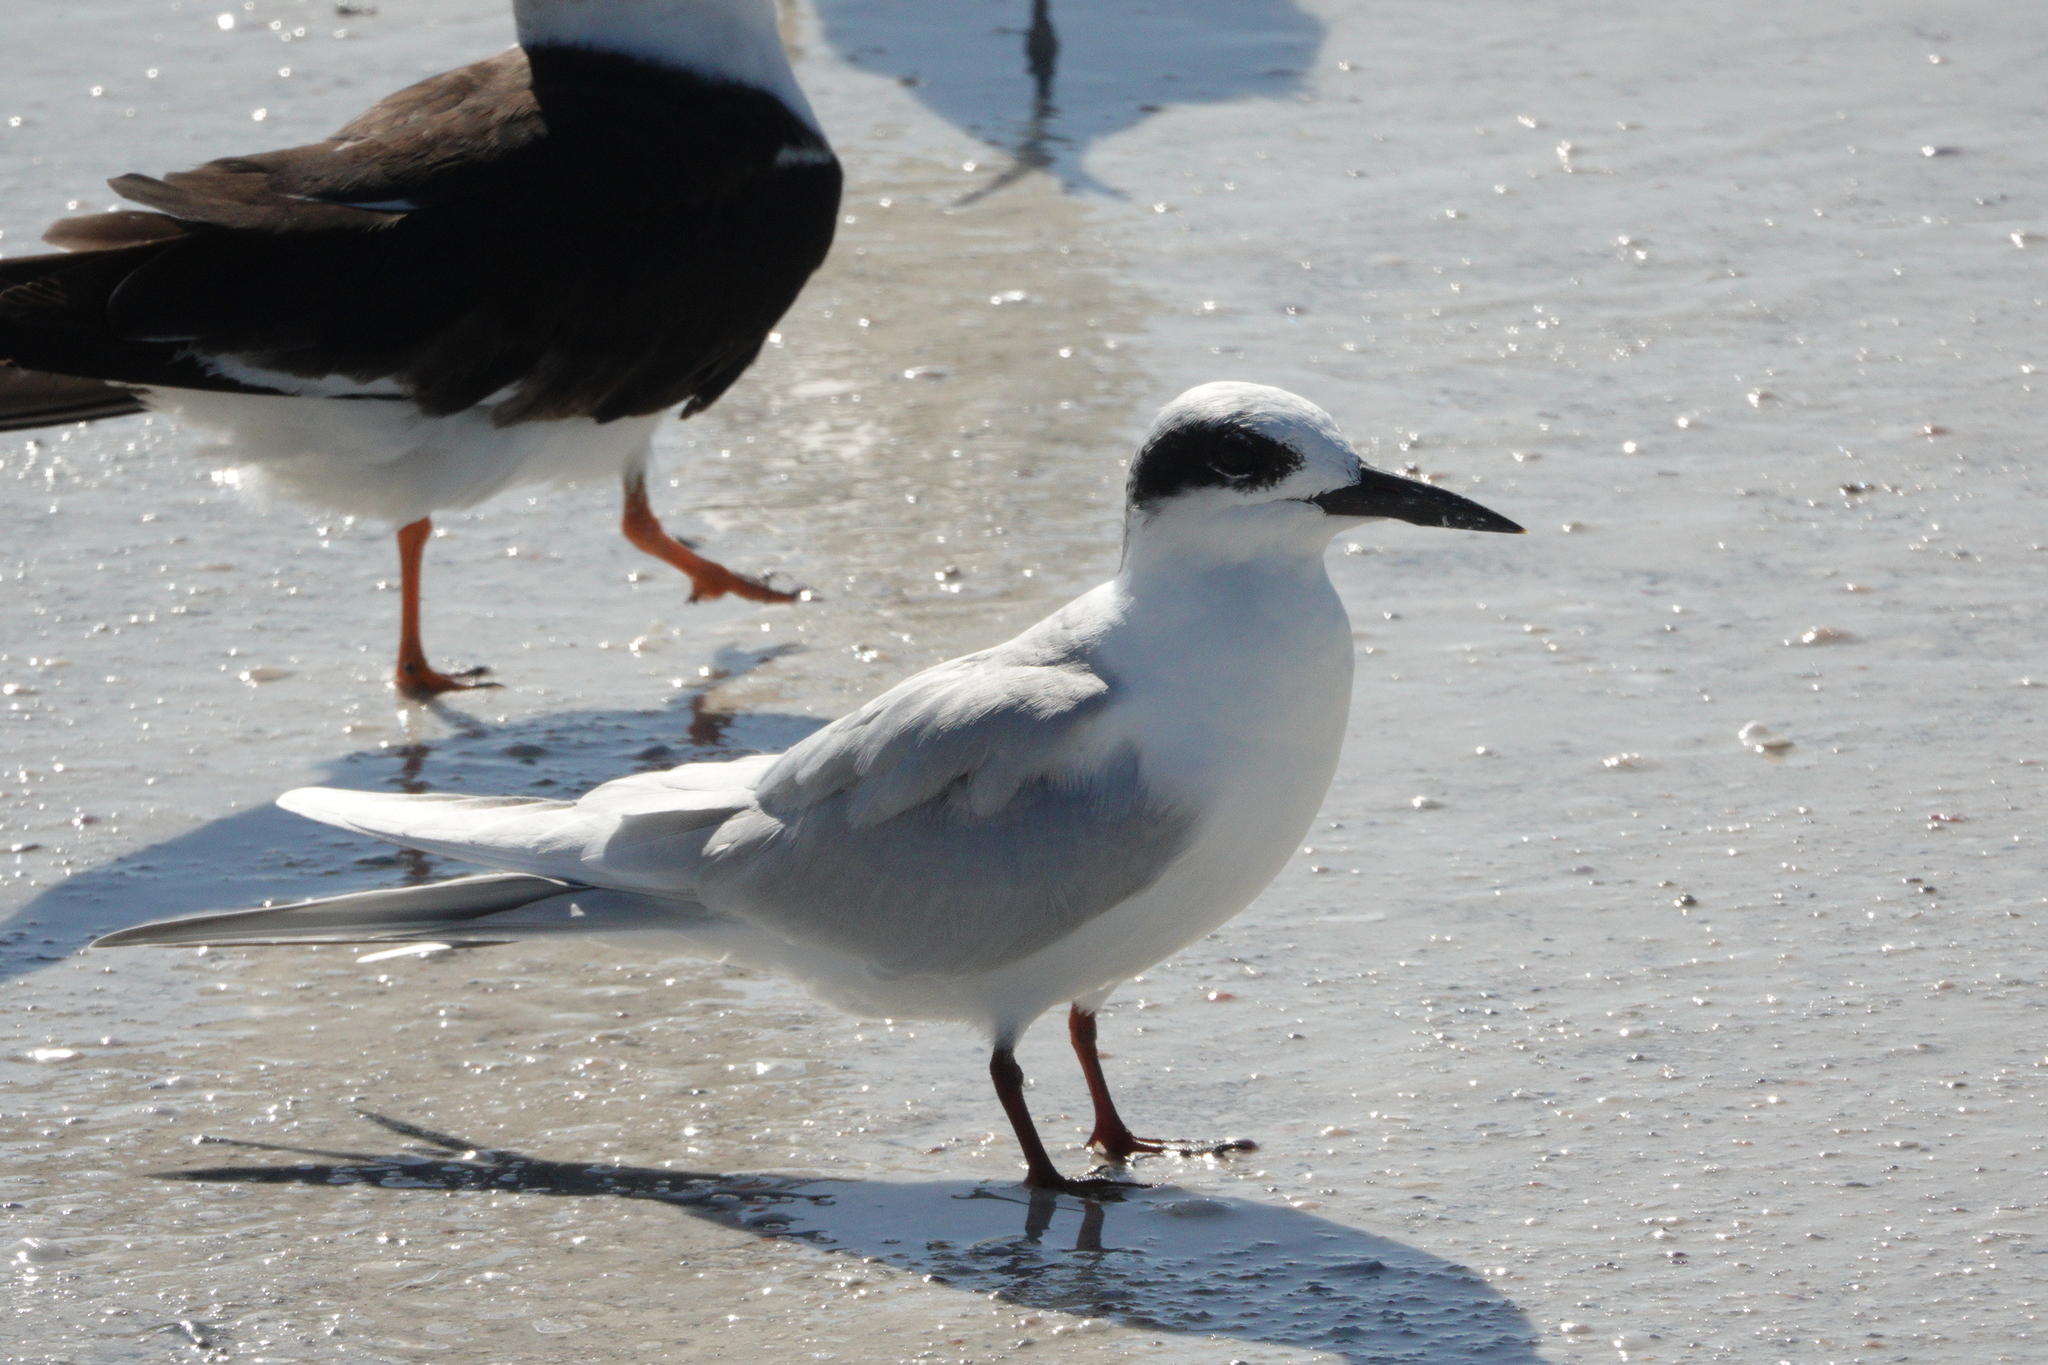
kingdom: Animalia
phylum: Chordata
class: Aves
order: Charadriiformes
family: Laridae
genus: Sterna
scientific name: Sterna forsteri
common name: Forster's tern
